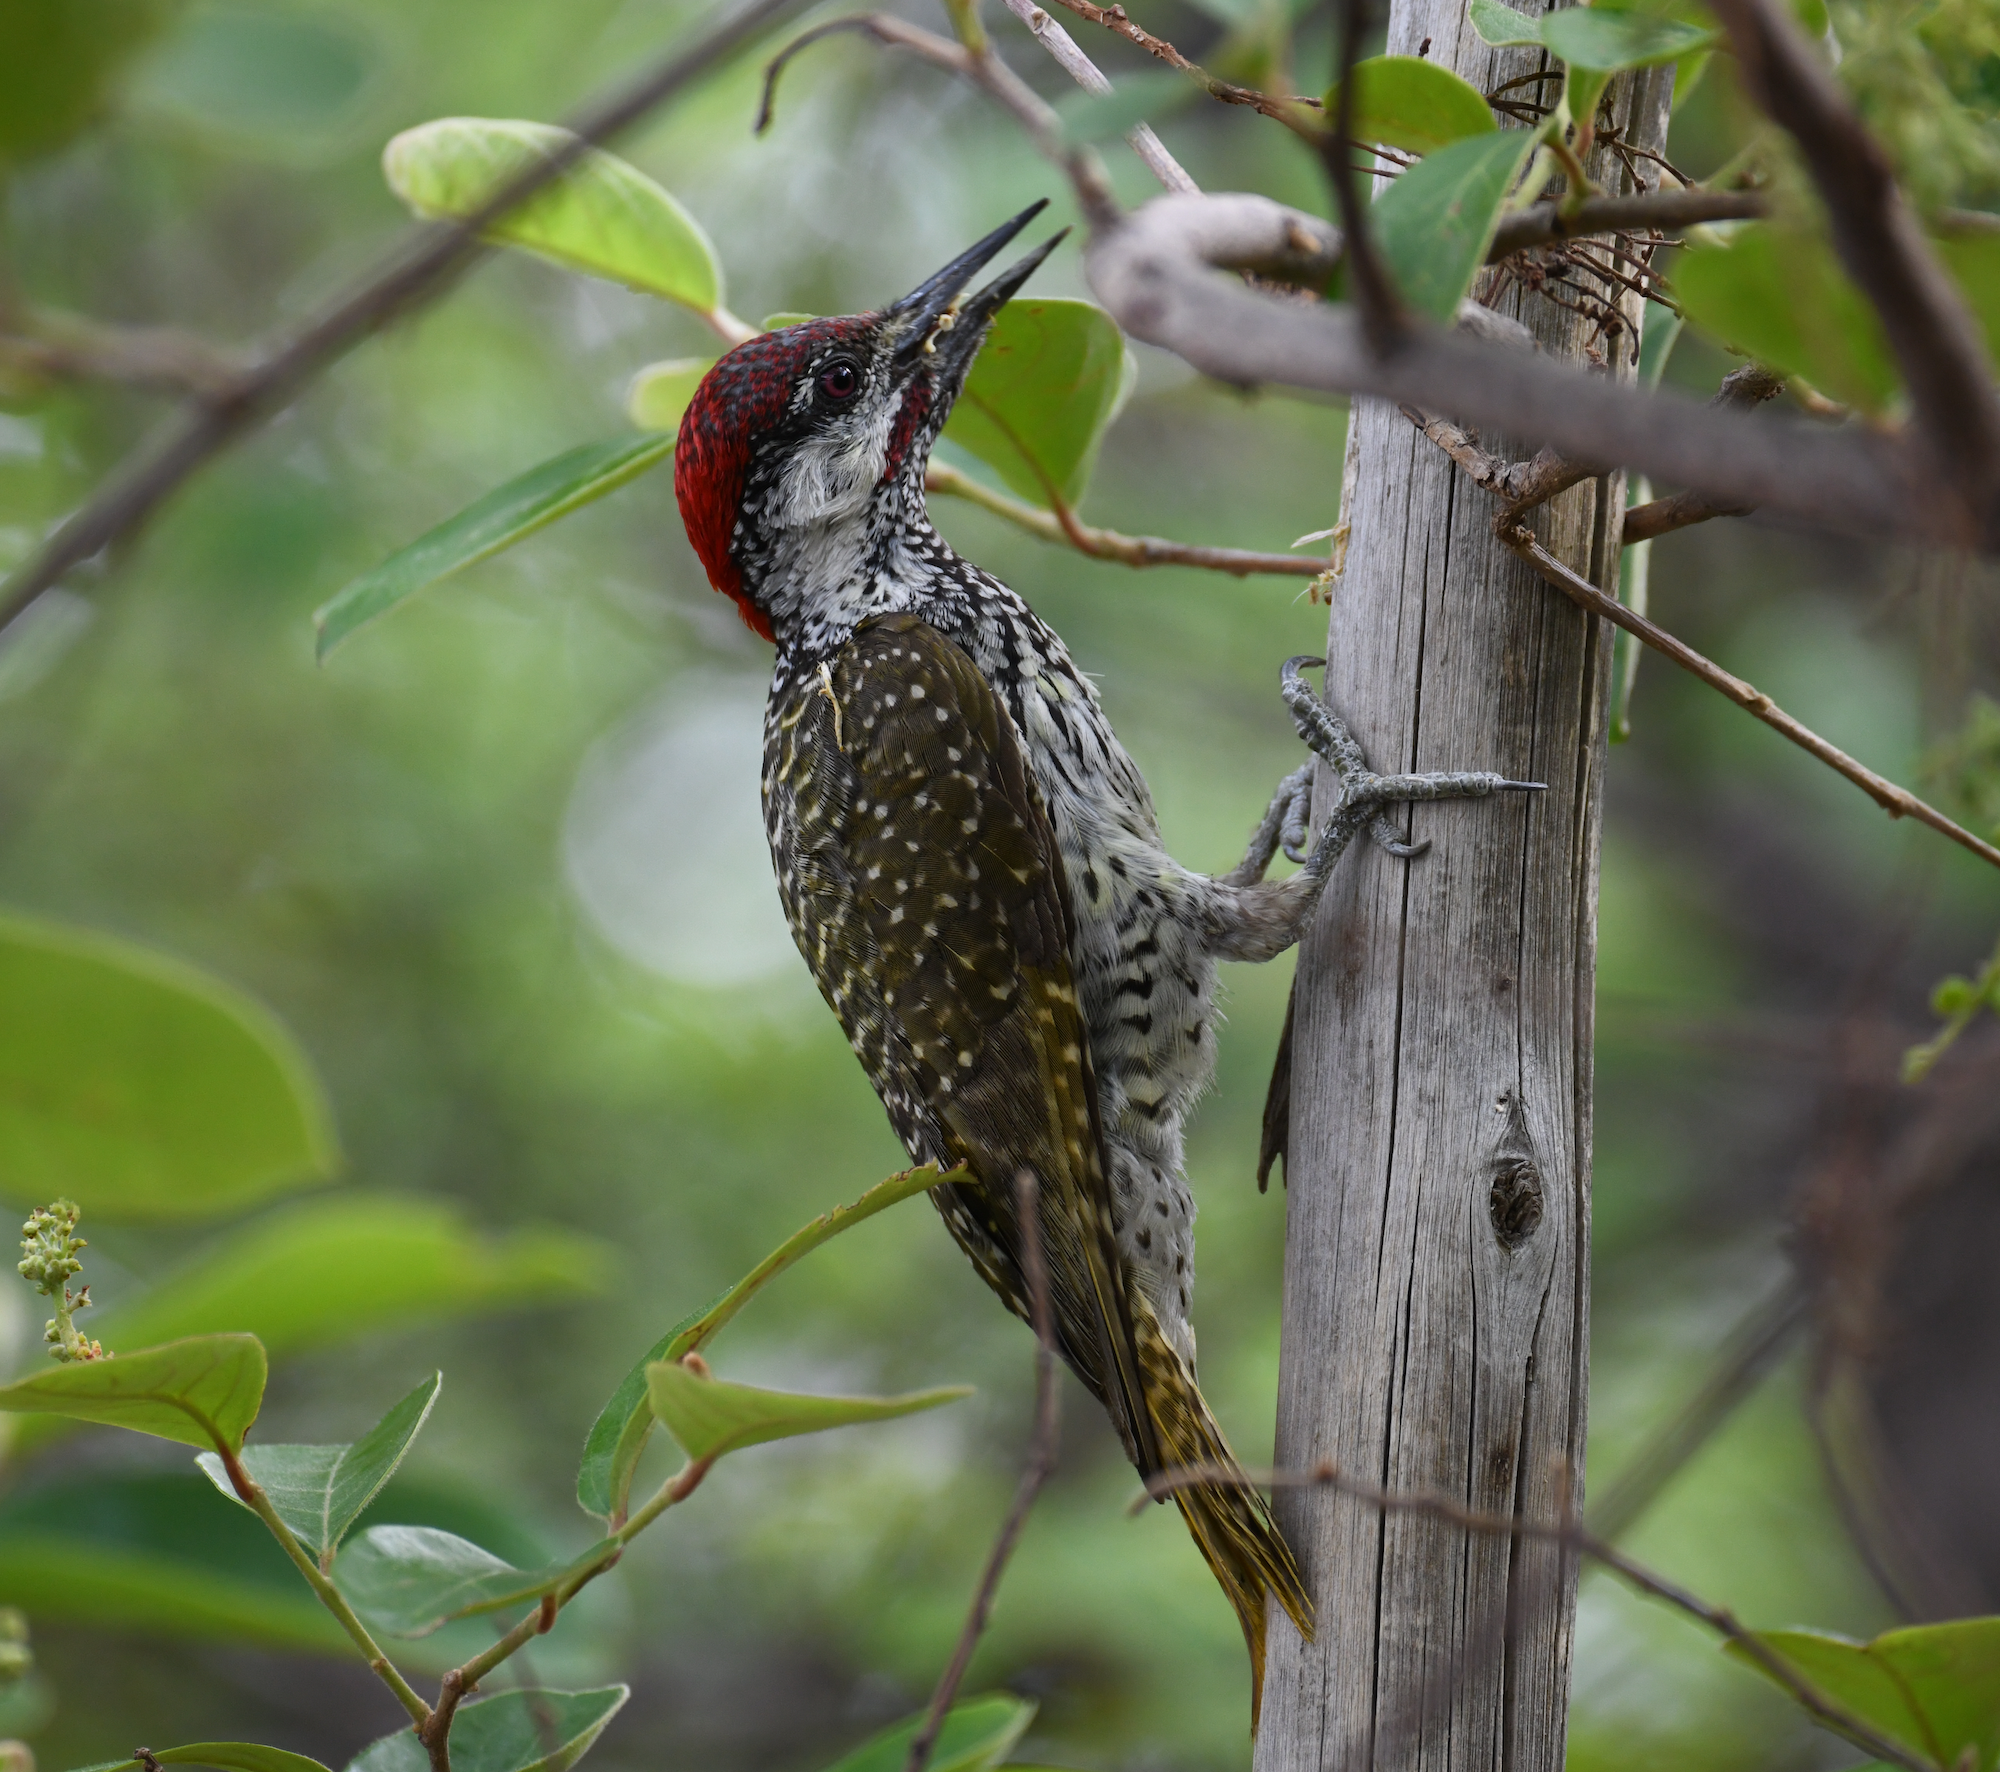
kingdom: Animalia
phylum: Chordata
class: Aves
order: Piciformes
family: Picidae
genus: Campethera
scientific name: Campethera abingoni
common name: Golden-tailed woodpecker
